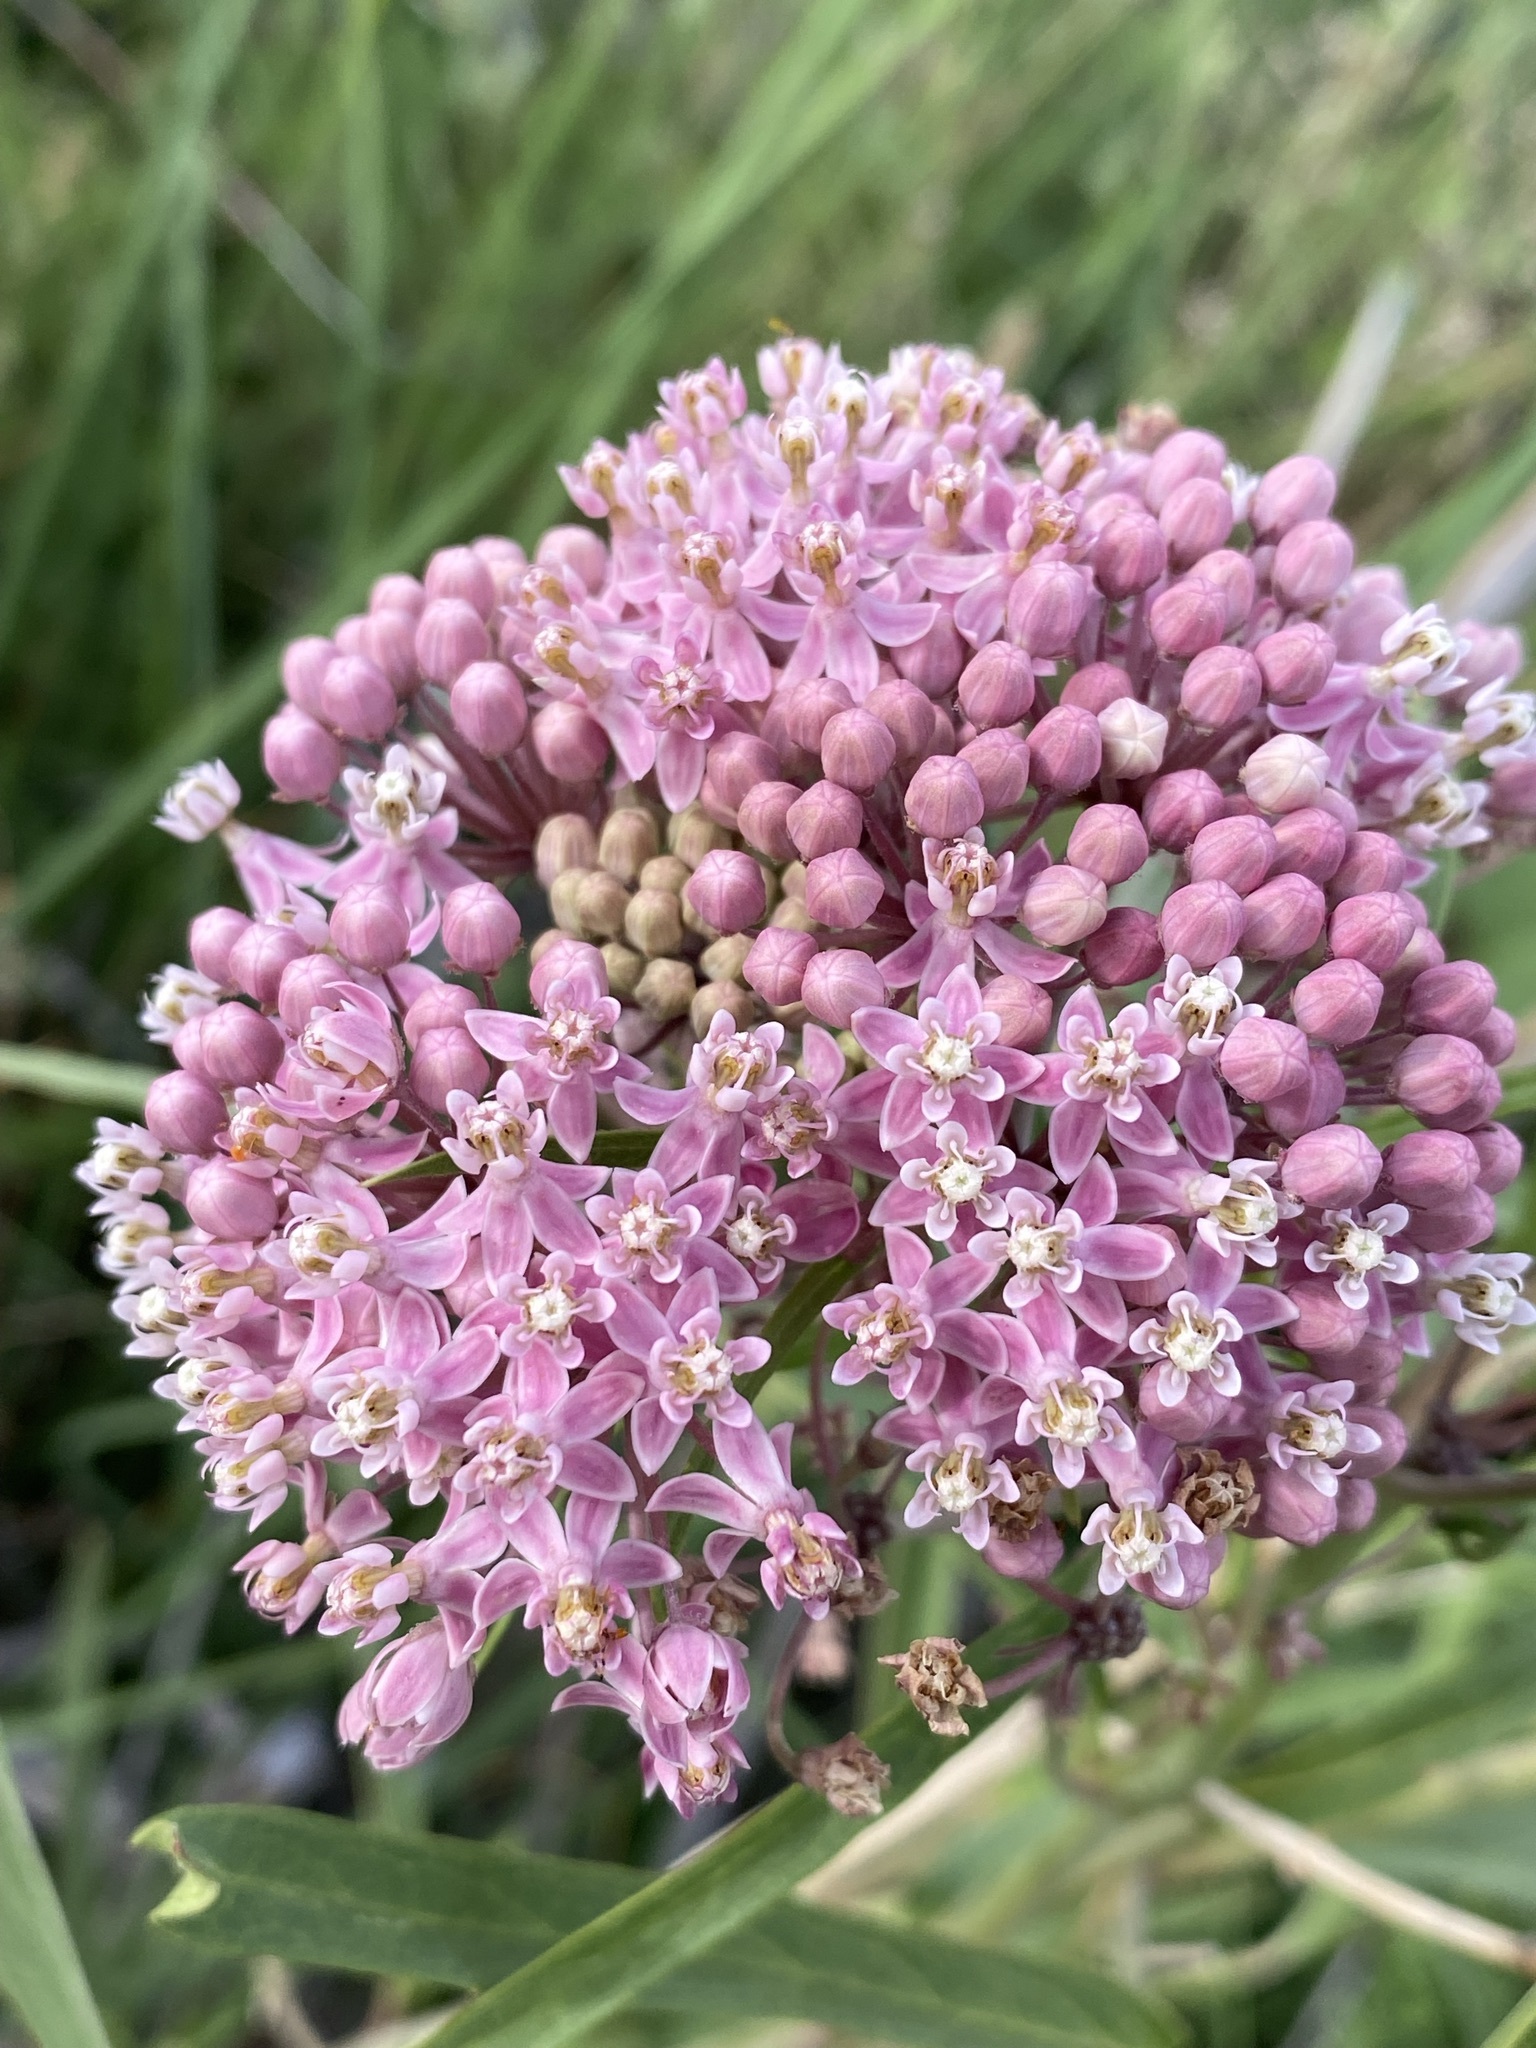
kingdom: Plantae
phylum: Tracheophyta
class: Magnoliopsida
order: Gentianales
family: Apocynaceae
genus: Asclepias
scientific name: Asclepias incarnata
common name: Swamp milkweed
